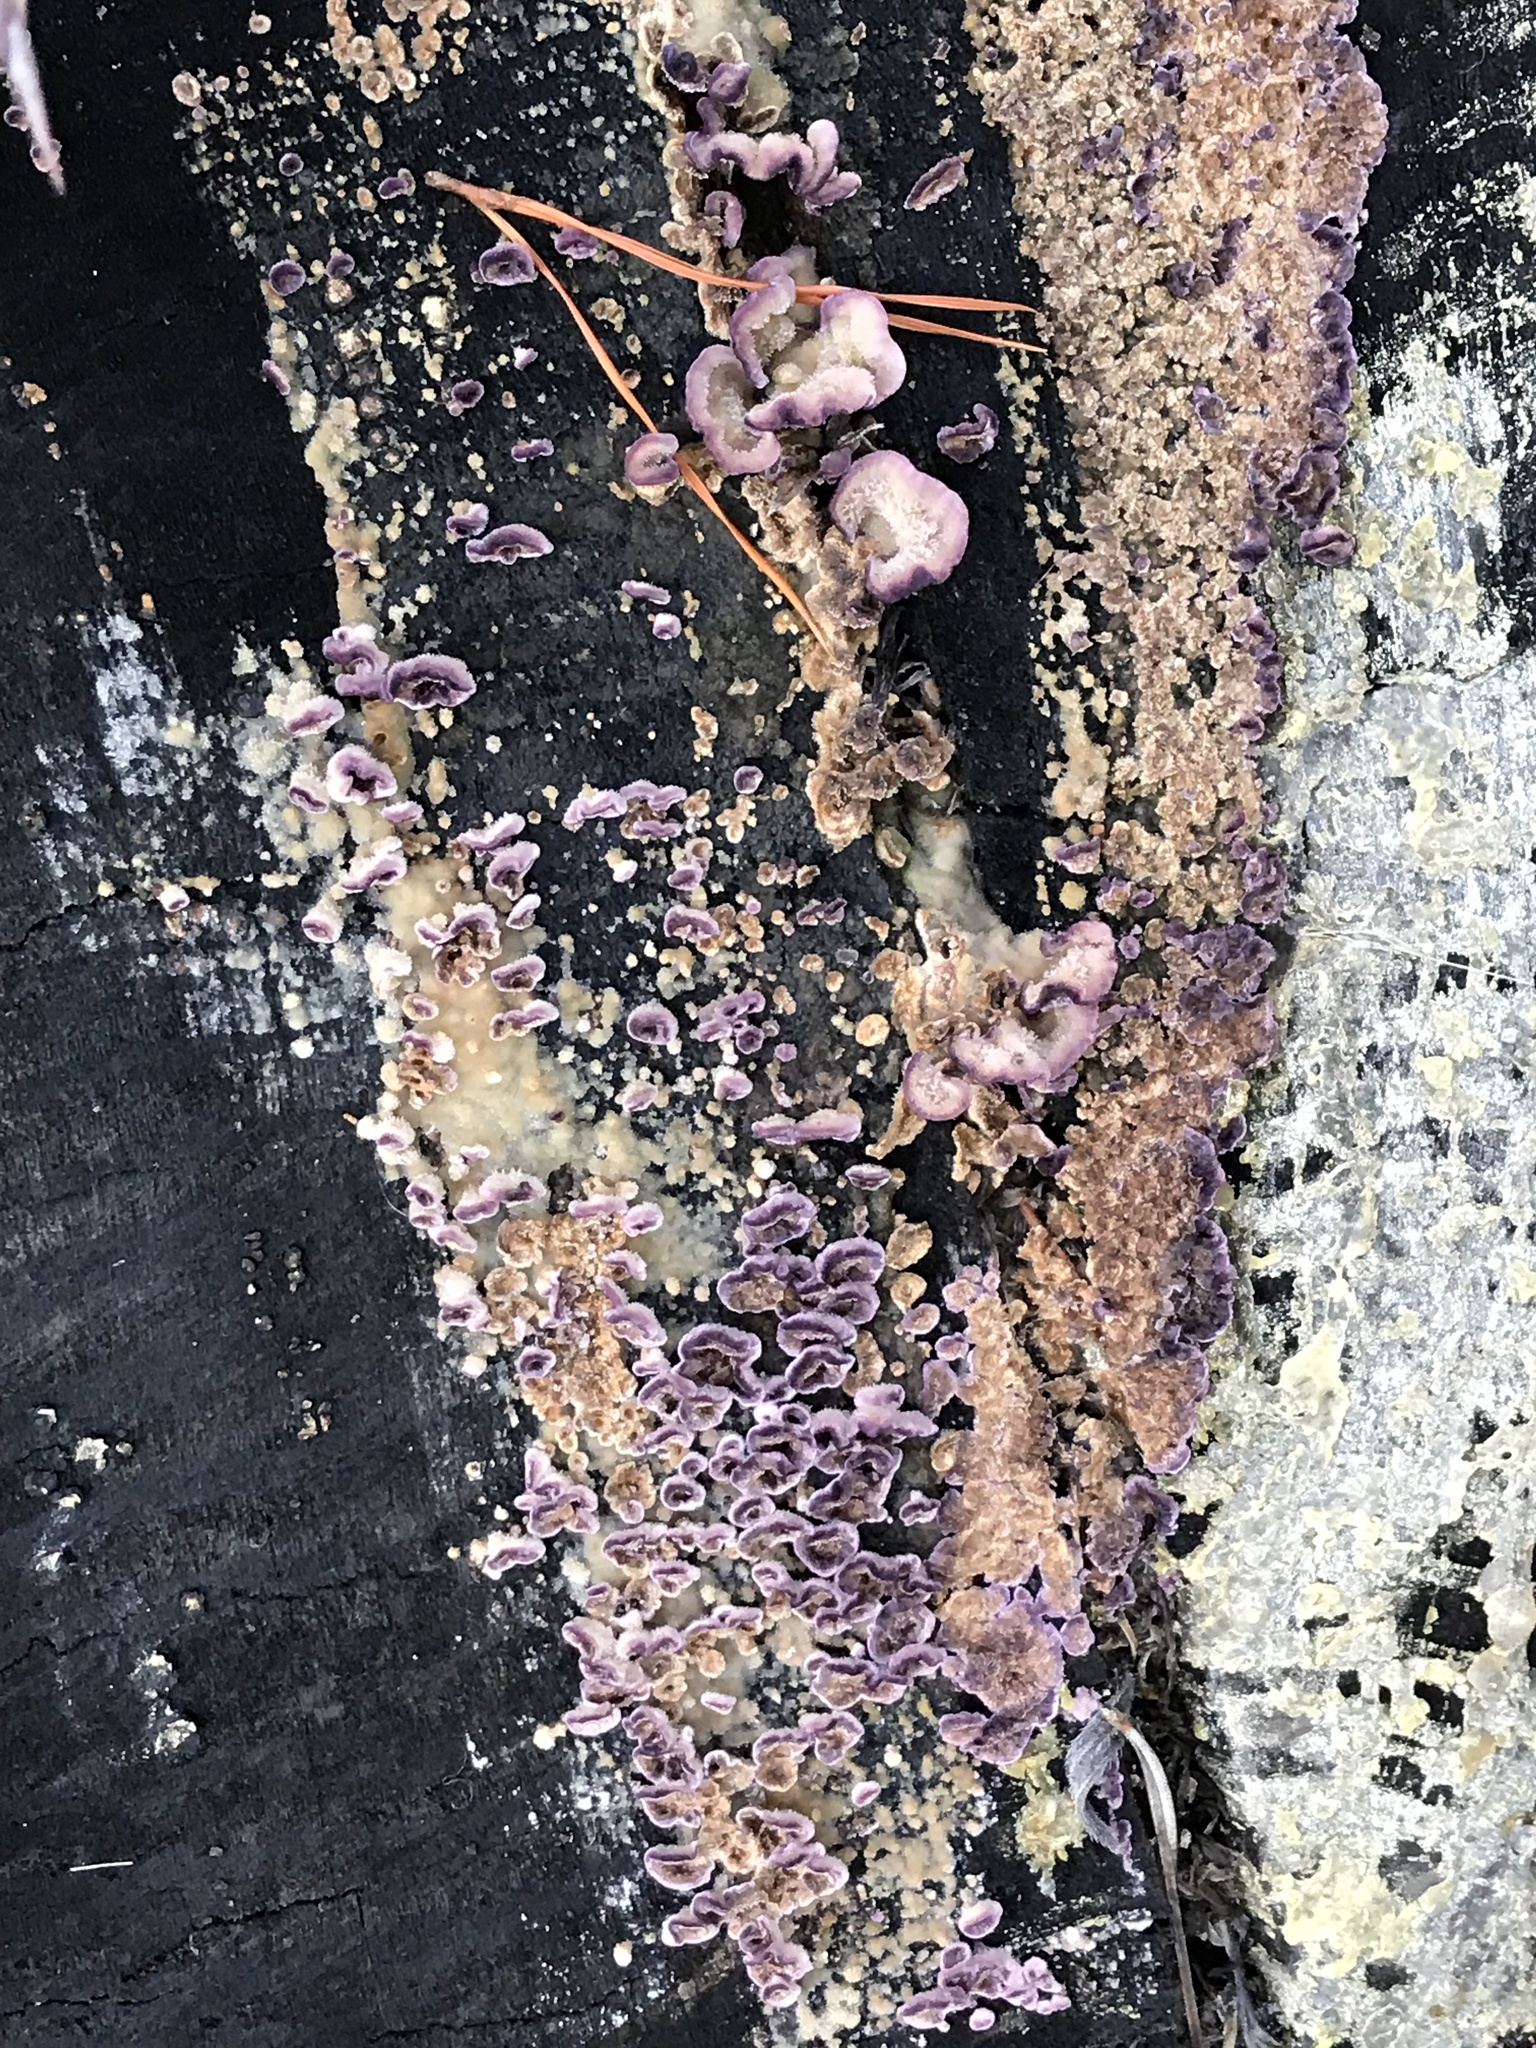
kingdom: Fungi
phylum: Basidiomycota
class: Agaricomycetes
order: Hymenochaetales
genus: Trichaptum
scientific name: Trichaptum abietinum
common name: Purplepore bracket
